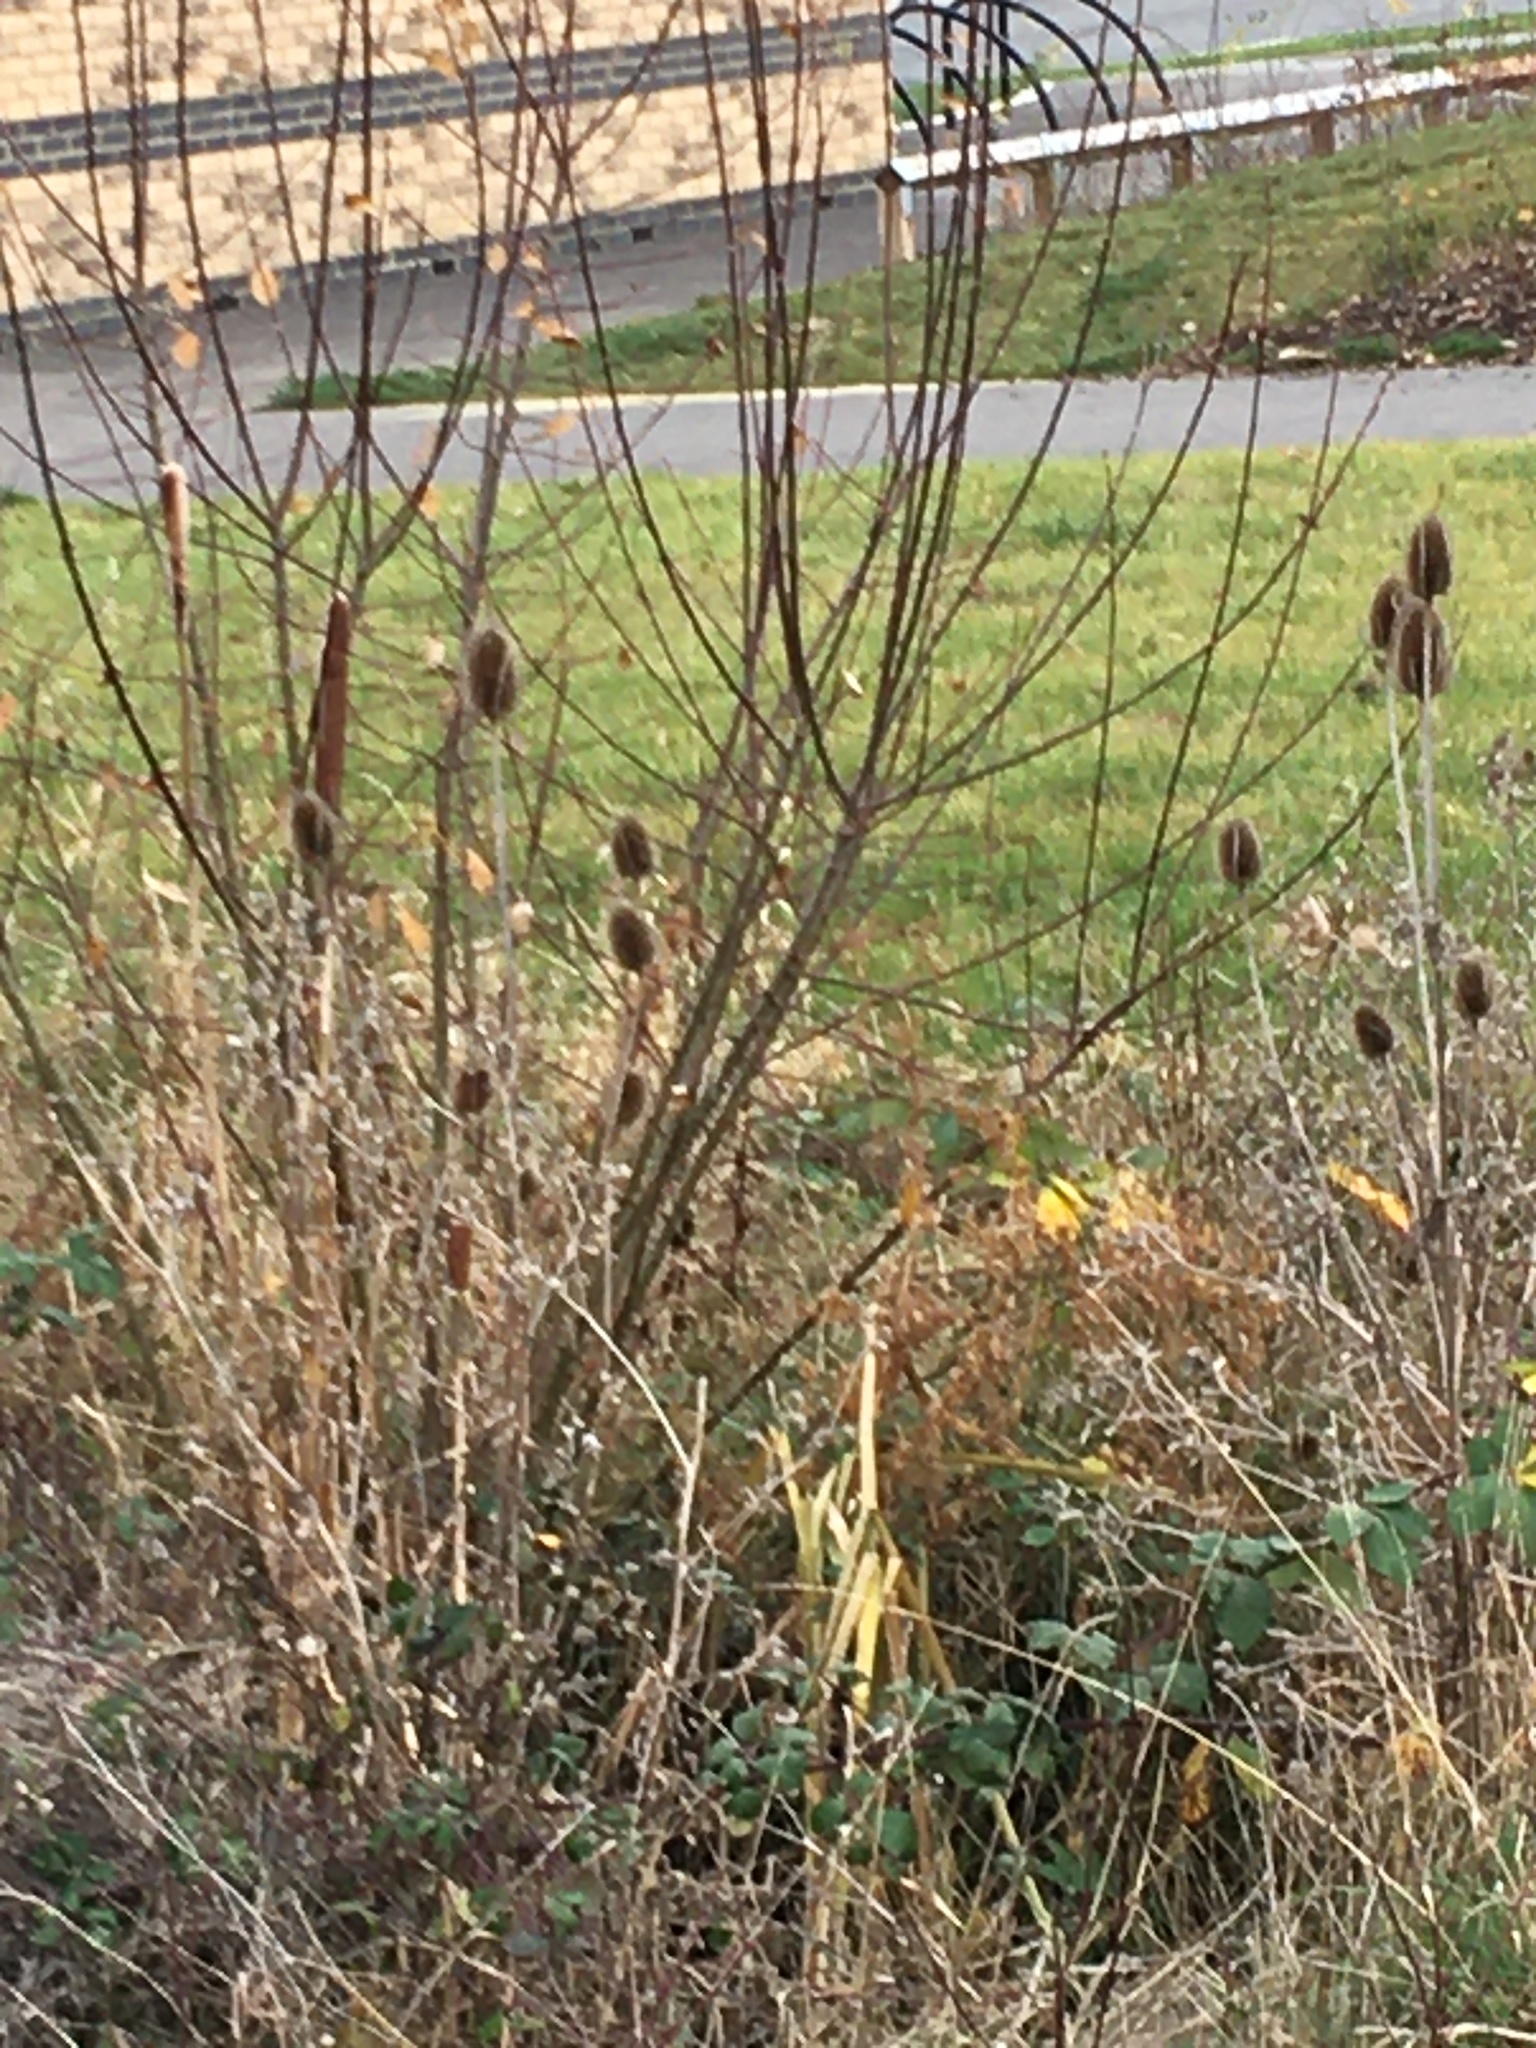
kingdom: Plantae
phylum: Tracheophyta
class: Magnoliopsida
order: Dipsacales
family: Caprifoliaceae
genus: Dipsacus
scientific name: Dipsacus fullonum
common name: Teasel
